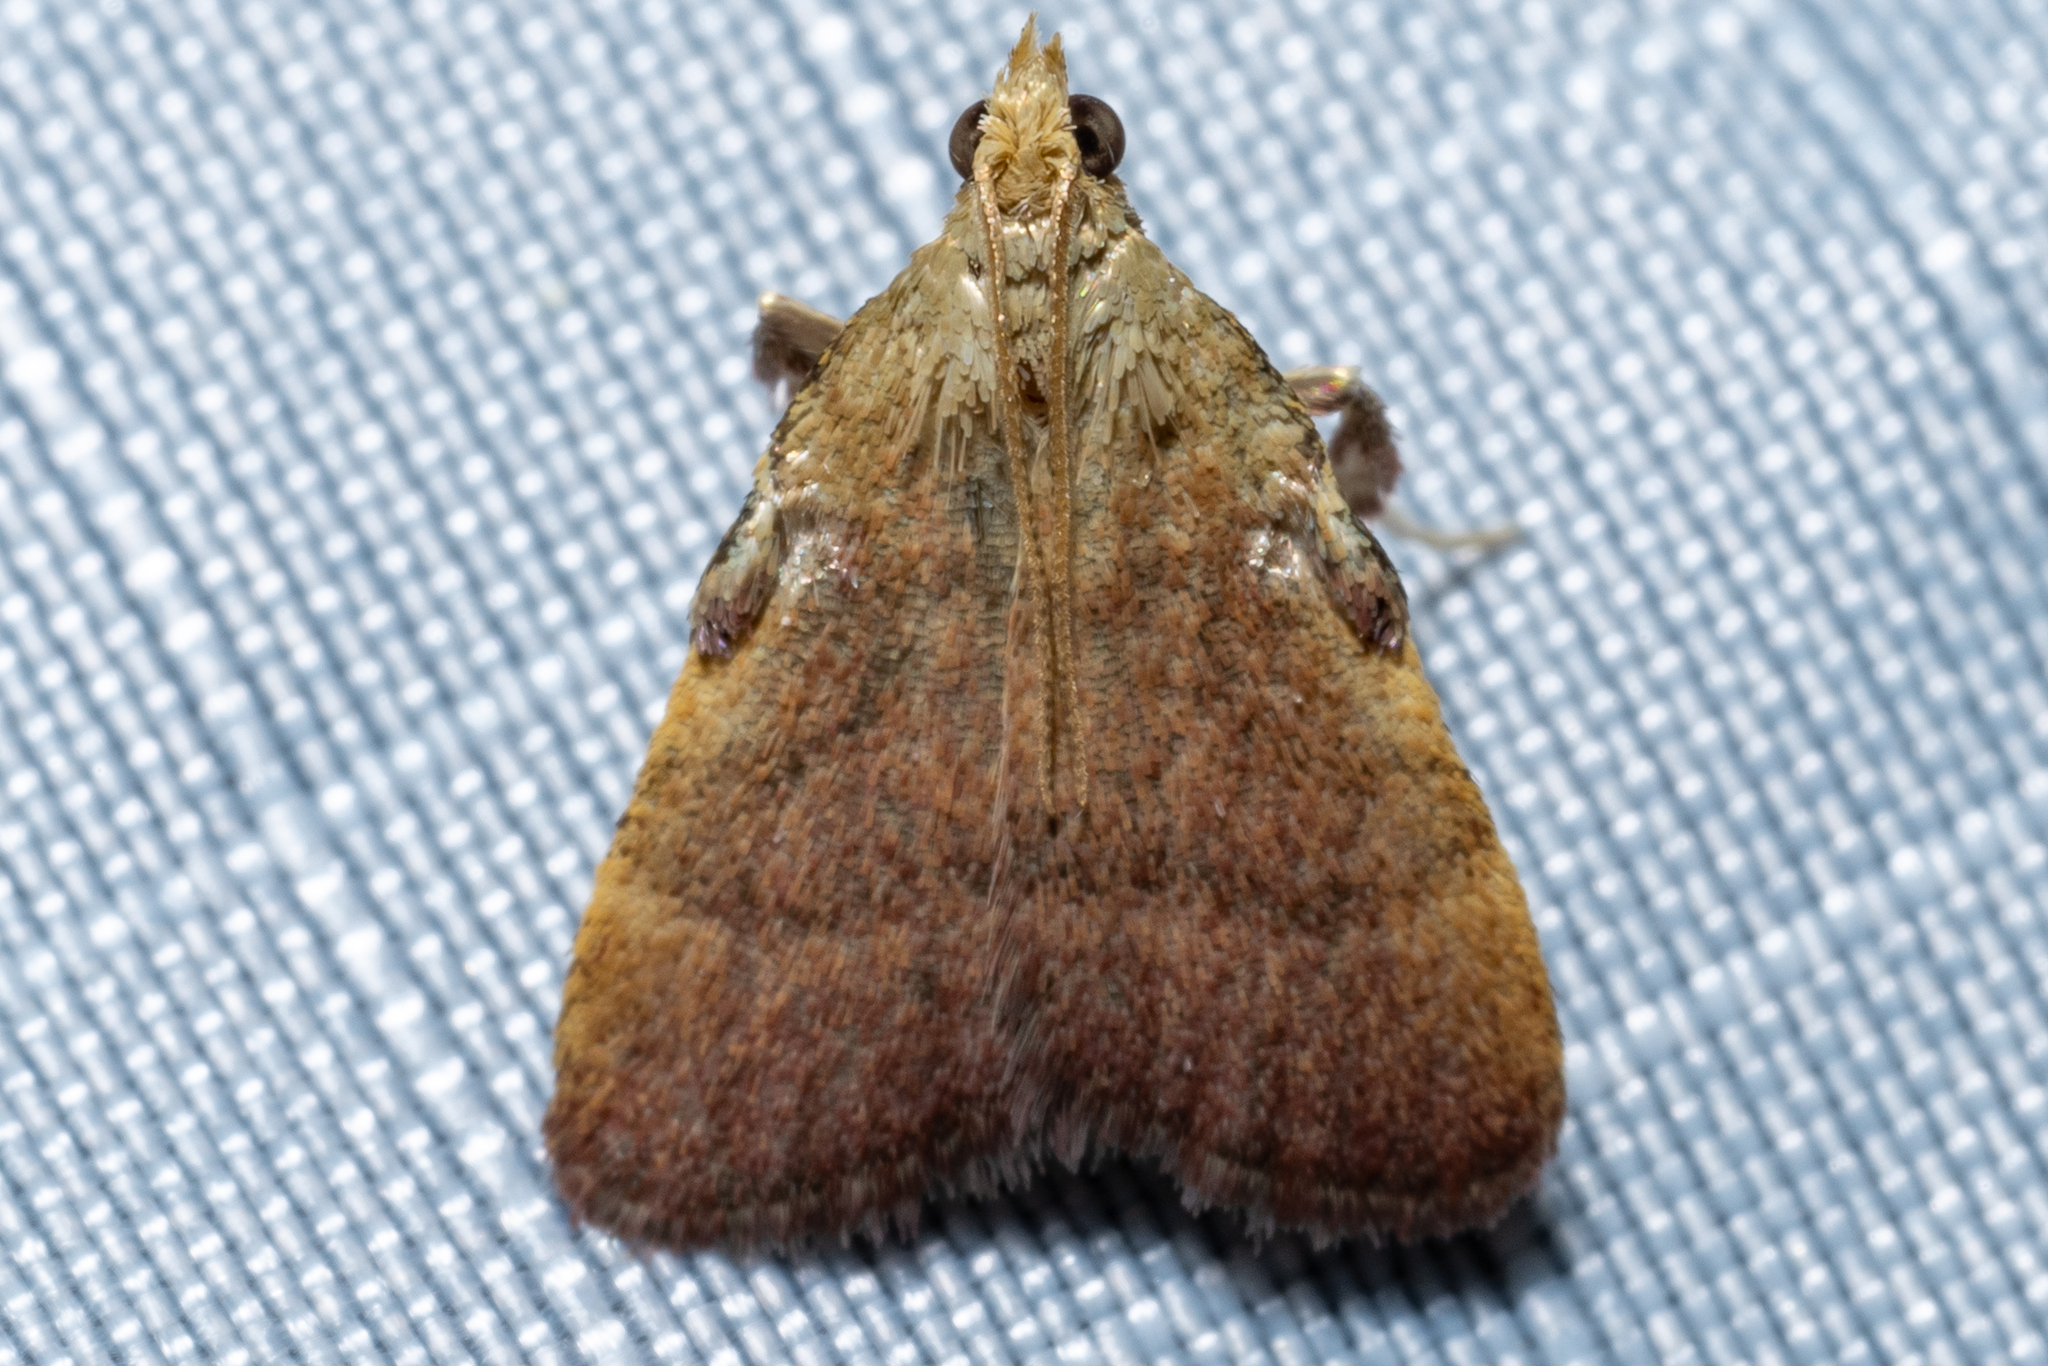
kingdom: Animalia
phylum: Arthropoda
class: Insecta
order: Lepidoptera
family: Pyralidae
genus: Condylolomia
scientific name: Condylolomia participialis
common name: Drab condylolomia moth
